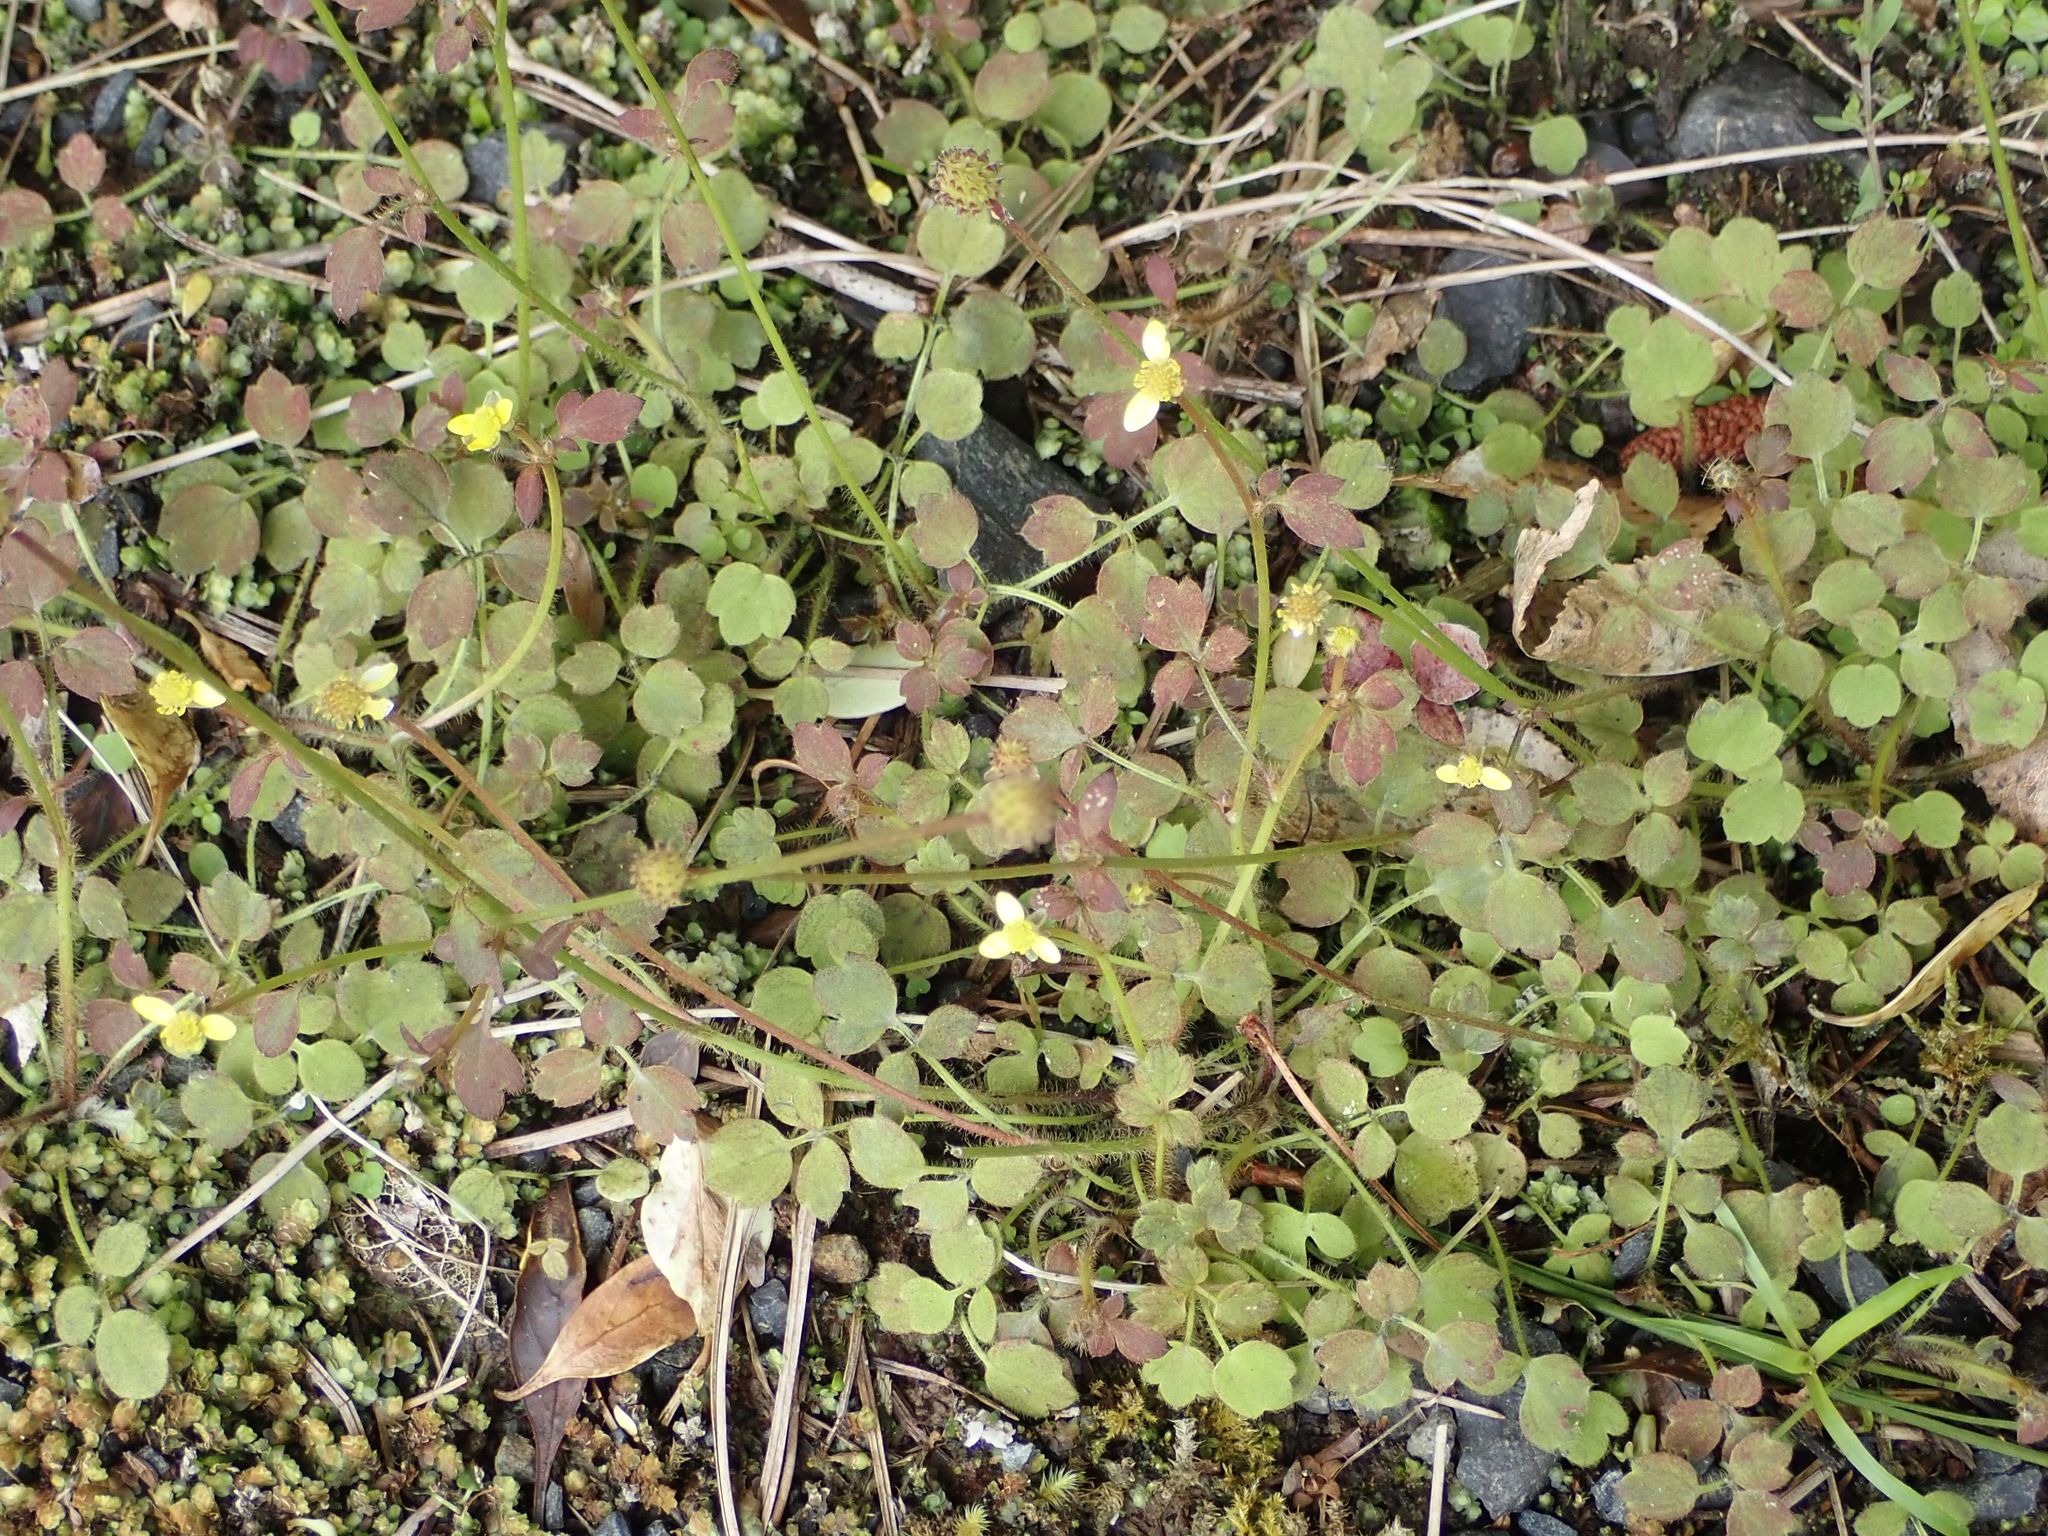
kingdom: Plantae
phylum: Tracheophyta
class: Magnoliopsida
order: Ranunculales
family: Ranunculaceae
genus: Ranunculus
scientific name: Ranunculus reflexus
